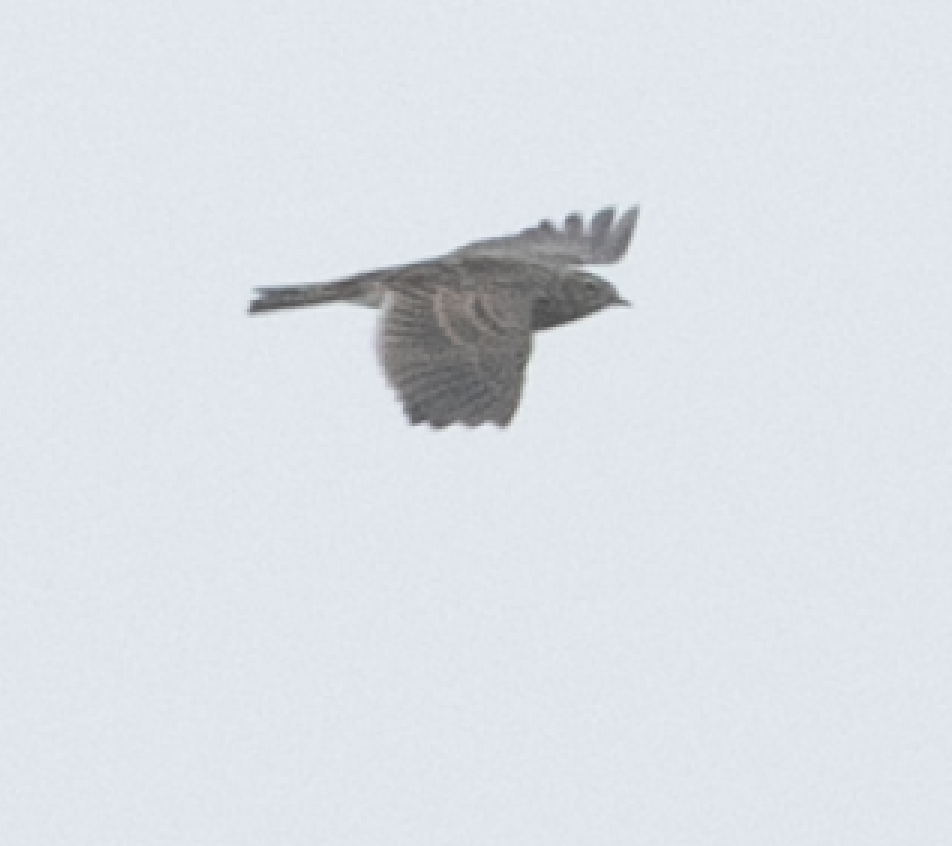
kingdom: Animalia
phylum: Chordata
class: Aves
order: Passeriformes
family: Alaudidae
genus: Alauda
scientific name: Alauda arvensis
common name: Eurasian skylark
